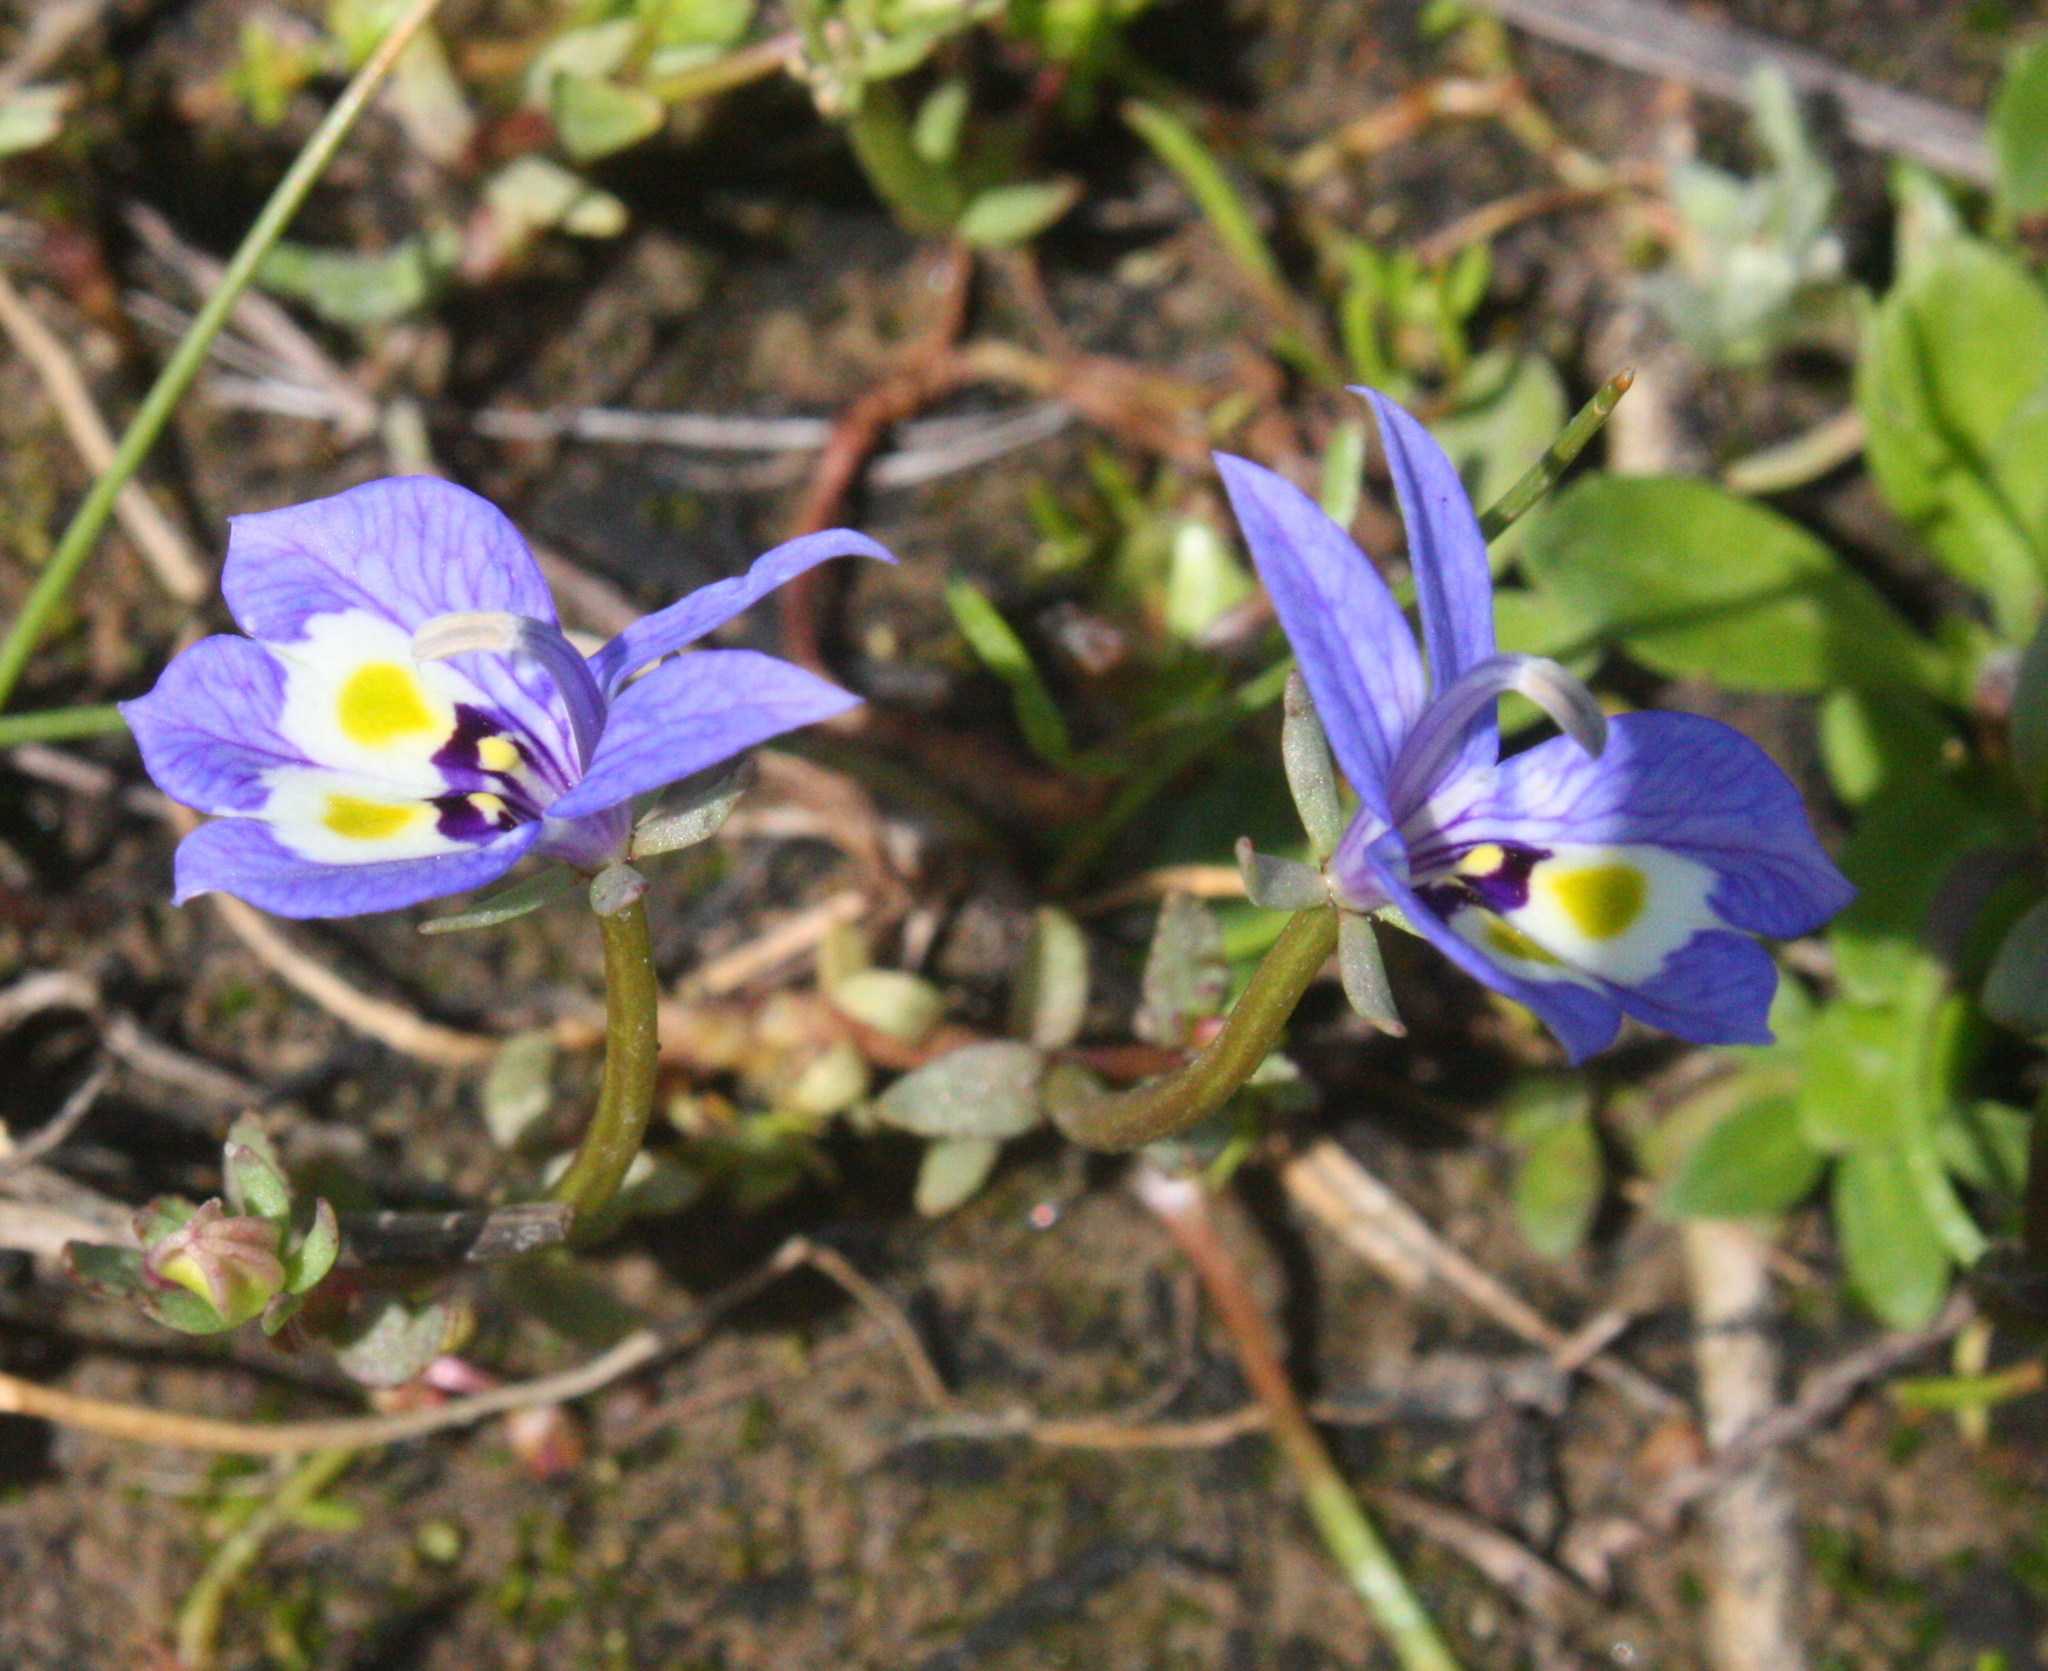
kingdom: Plantae
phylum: Tracheophyta
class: Magnoliopsida
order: Asterales
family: Campanulaceae
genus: Downingia
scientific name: Downingia insignis
